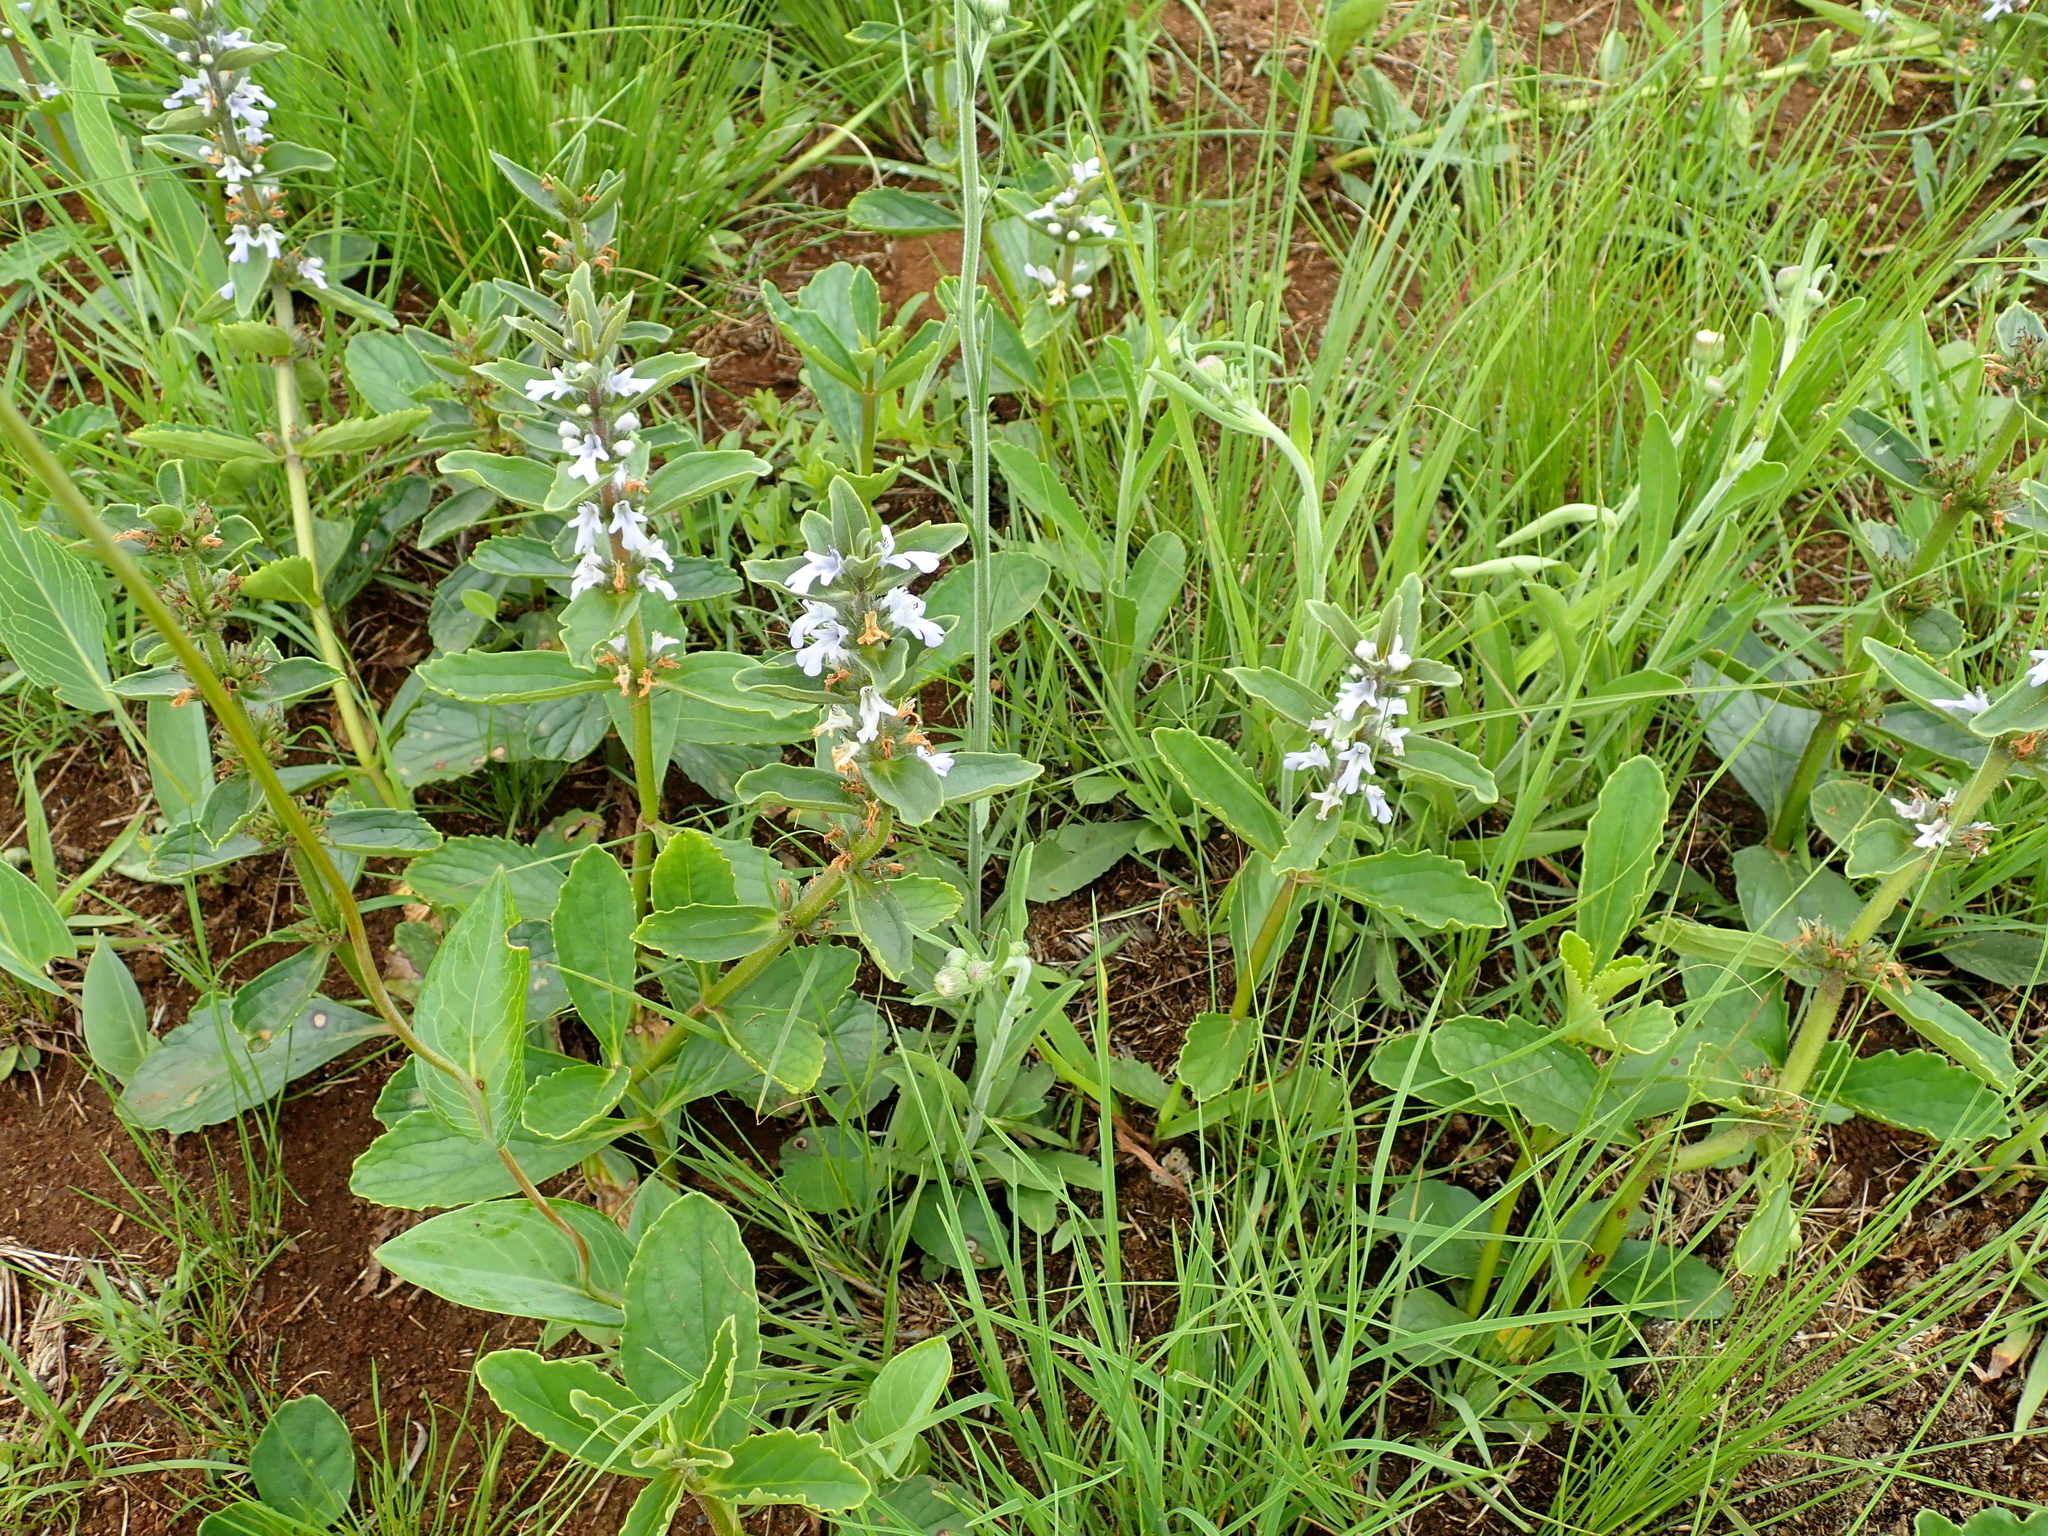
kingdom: Plantae
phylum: Tracheophyta
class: Magnoliopsida
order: Lamiales
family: Lamiaceae
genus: Ajuga
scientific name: Ajuga ophrydis
